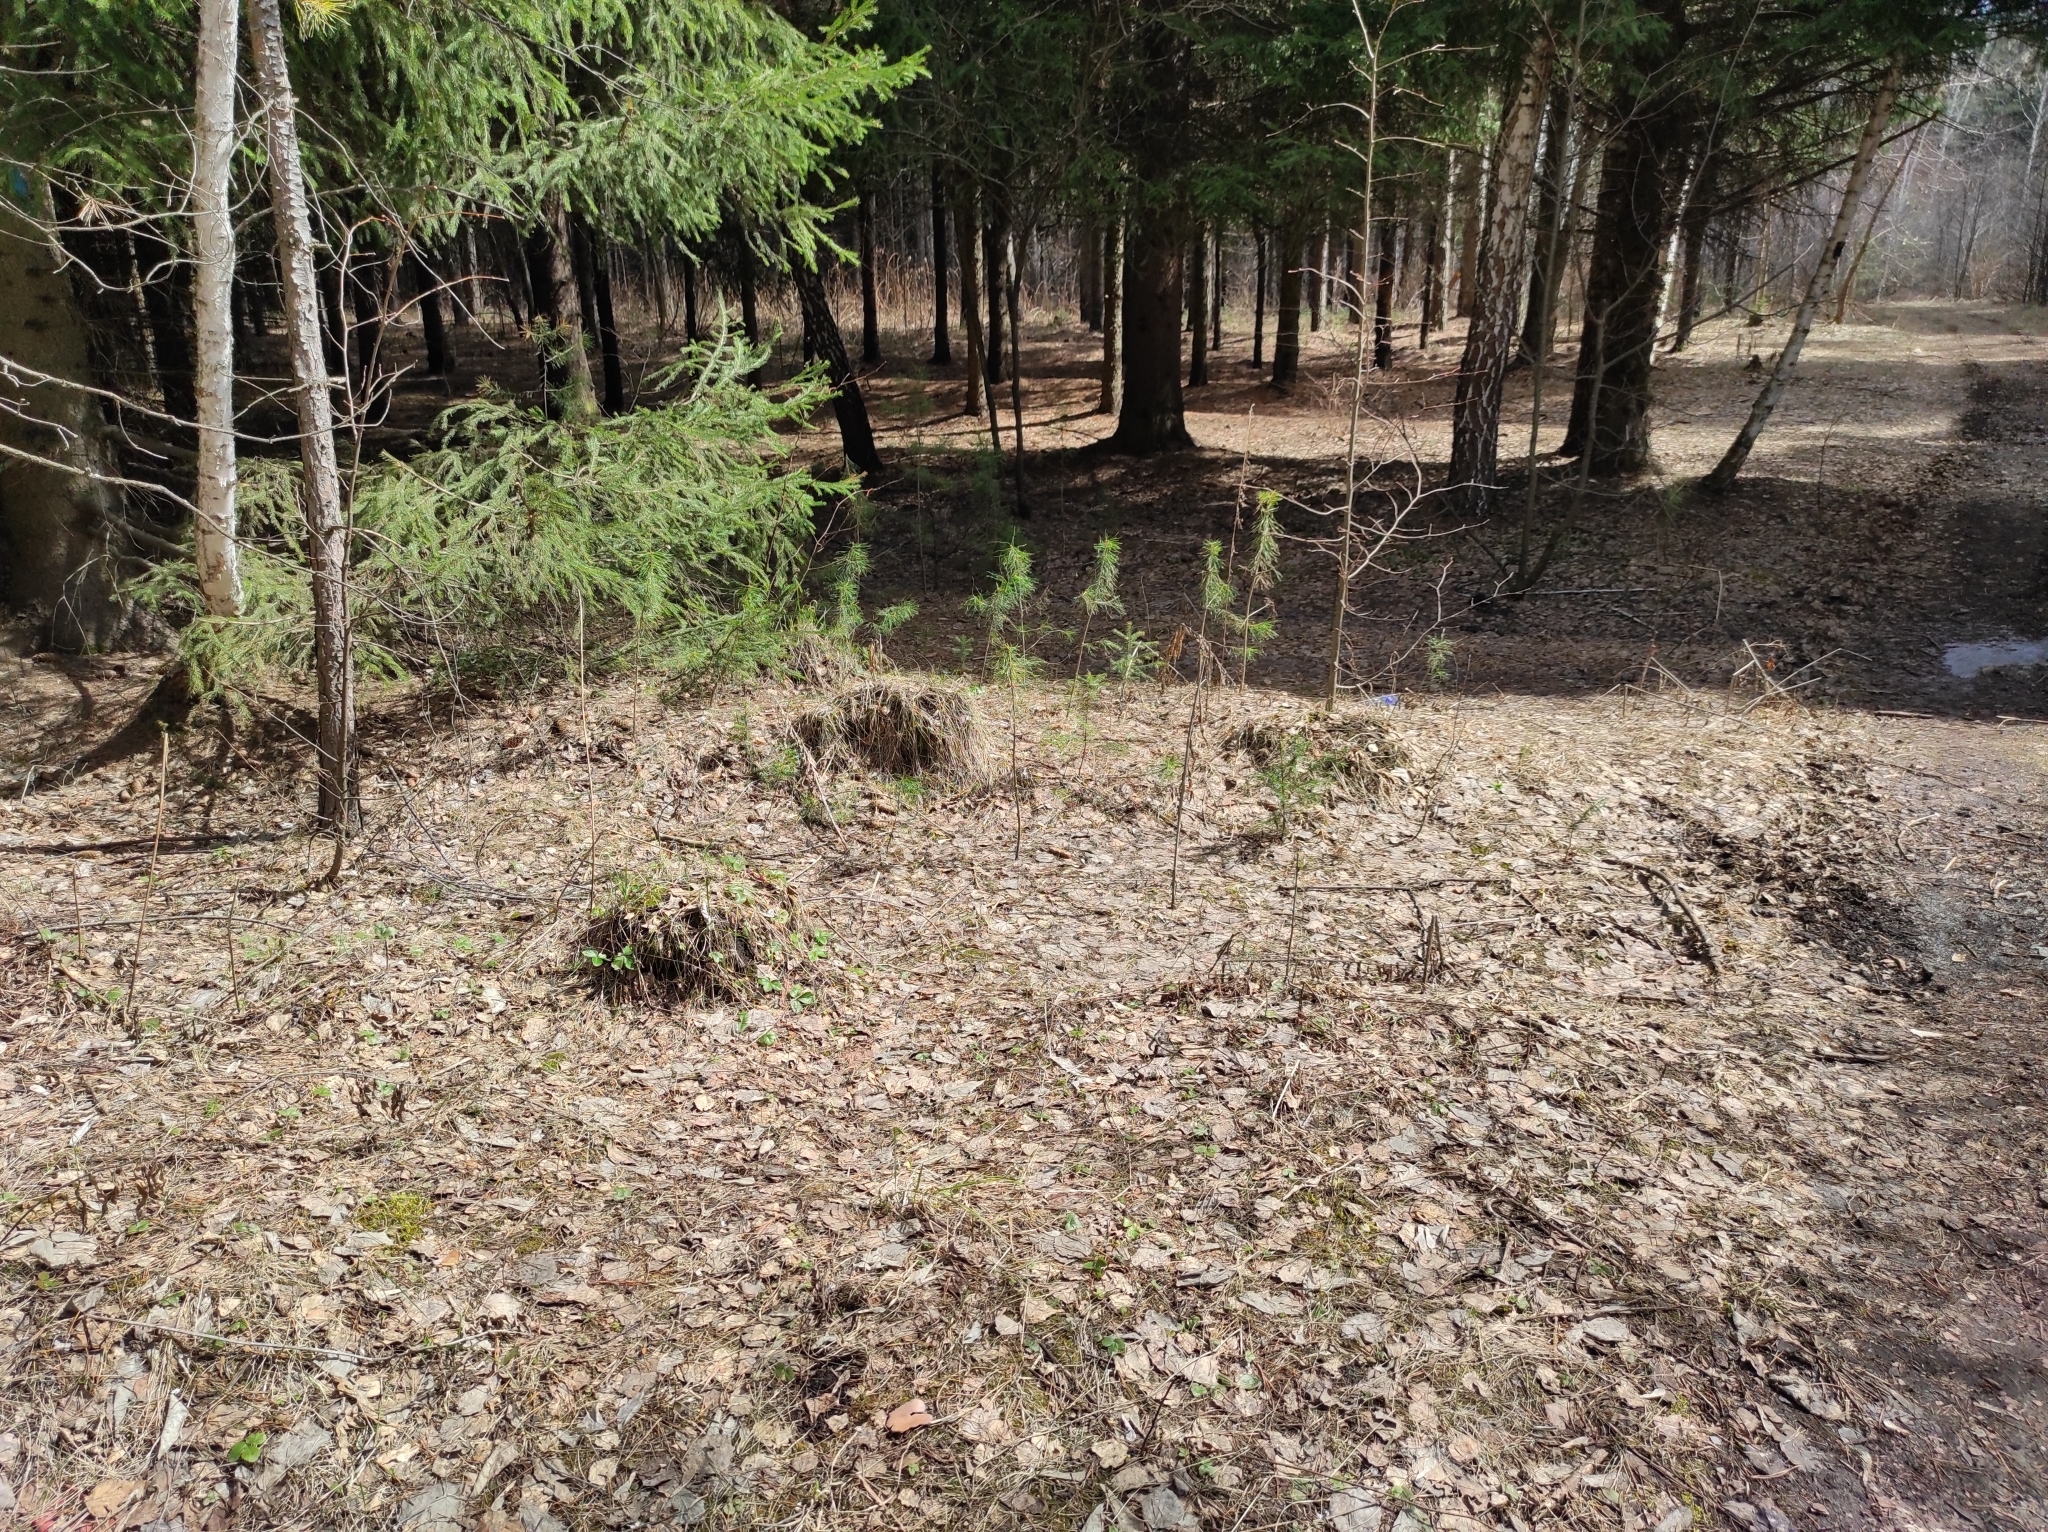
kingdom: Plantae
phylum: Tracheophyta
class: Pinopsida
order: Pinales
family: Pinaceae
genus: Pinus
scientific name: Pinus sylvestris
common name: Scots pine
